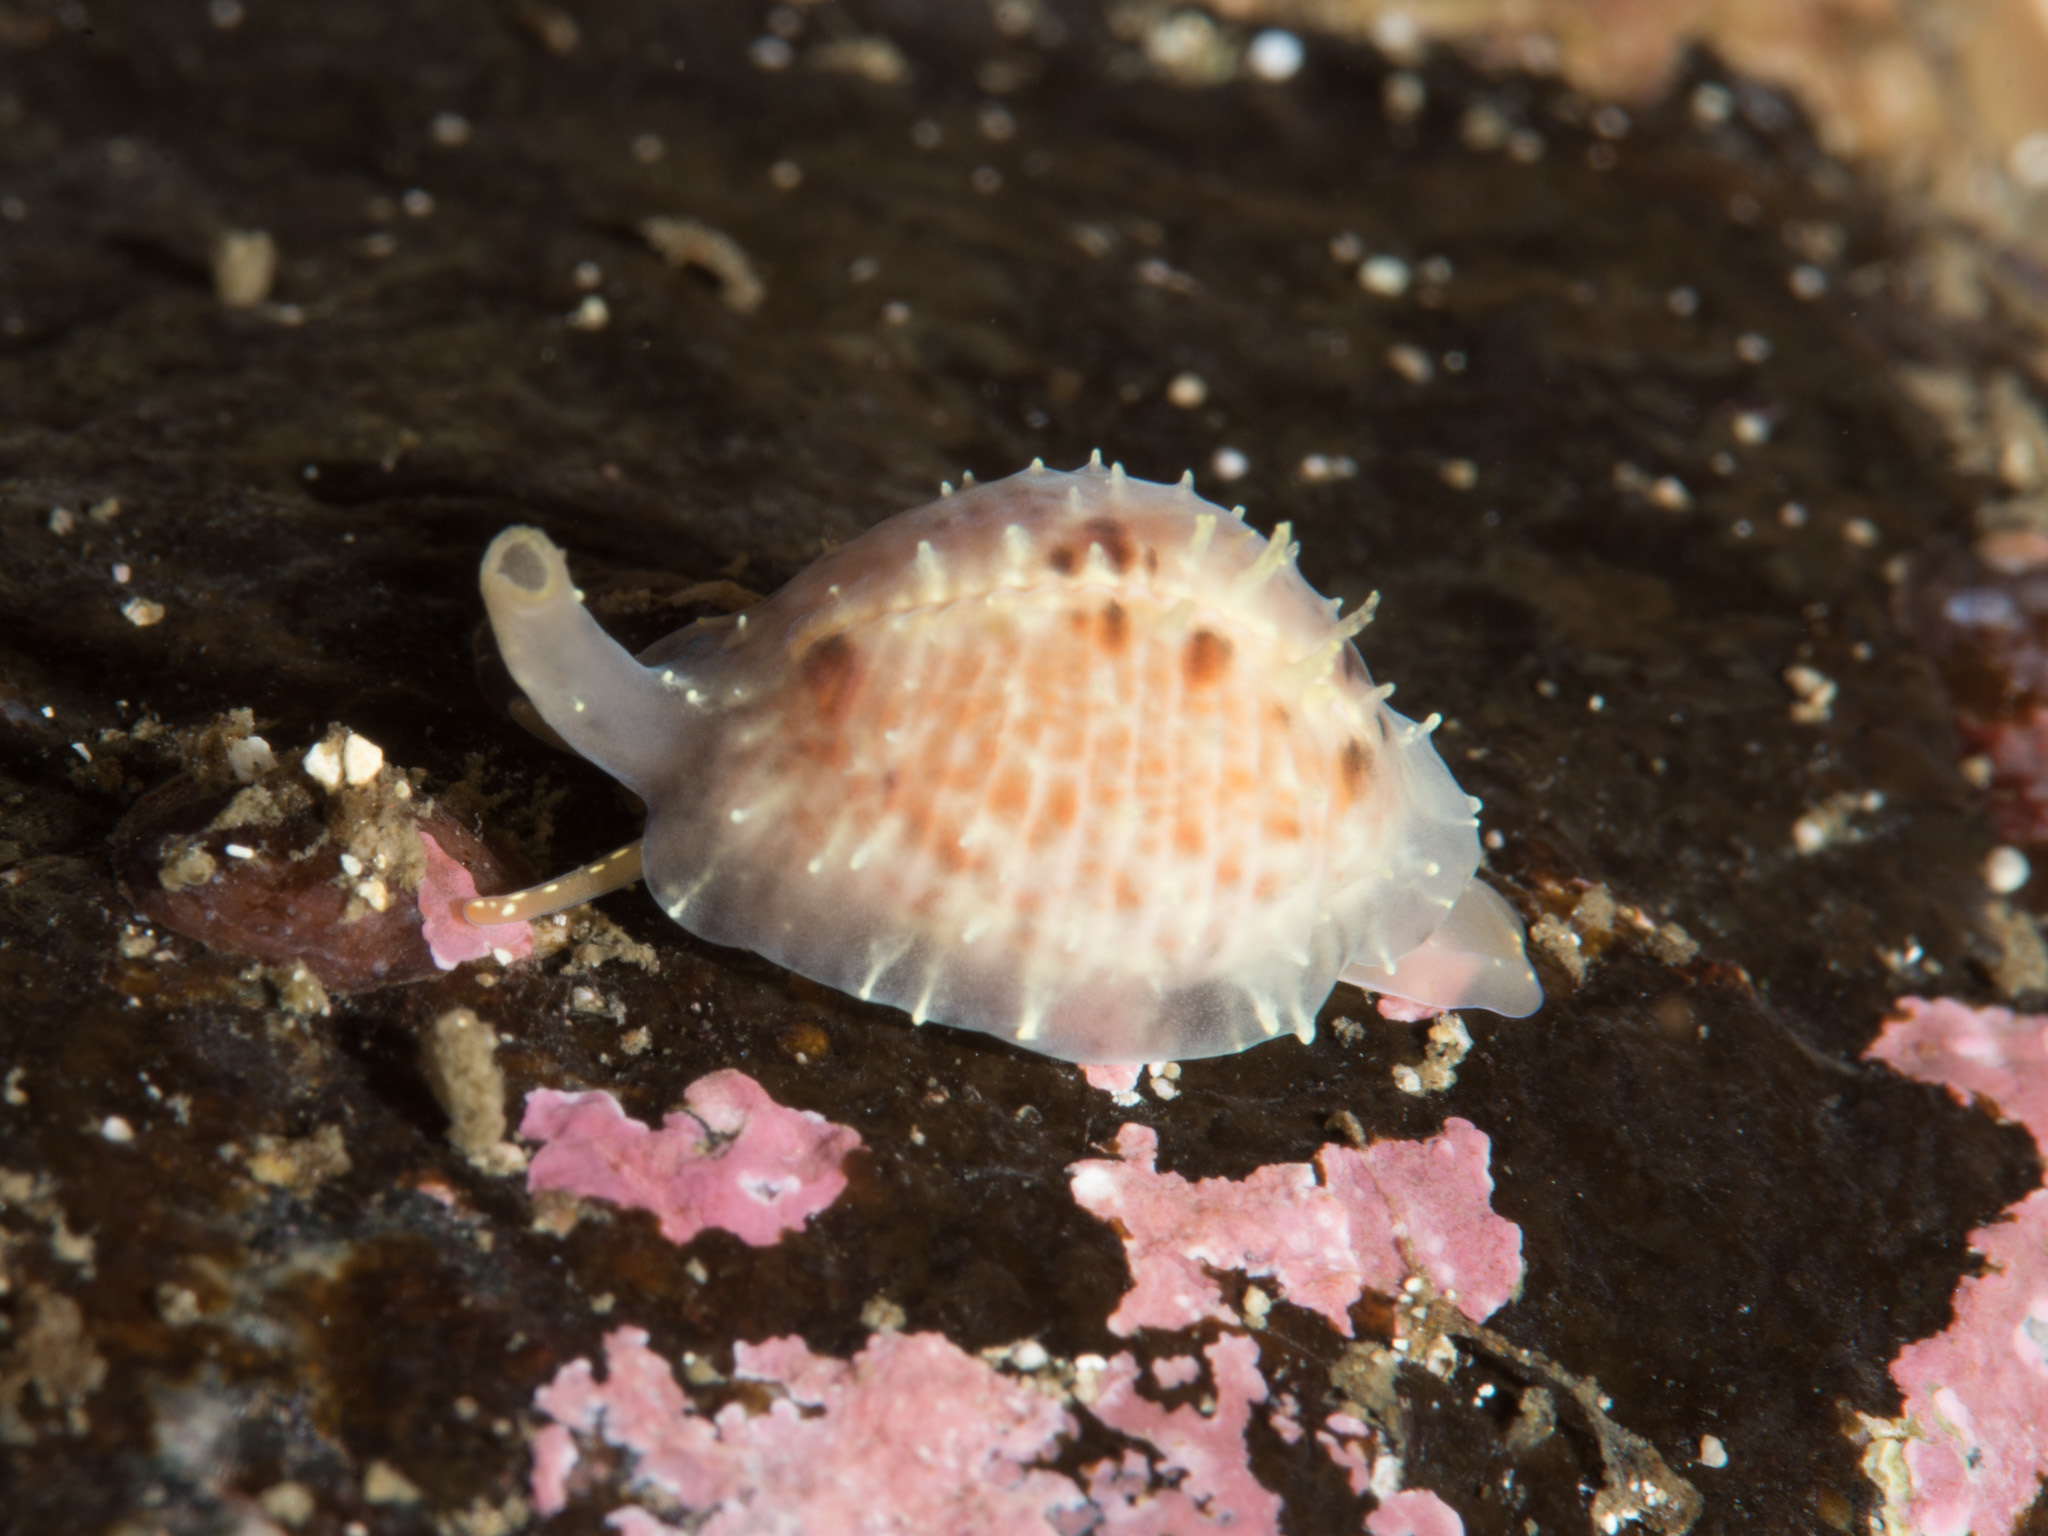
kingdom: Animalia
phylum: Mollusca
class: Gastropoda
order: Littorinimorpha
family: Triviidae
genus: Trivia
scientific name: Trivia arctica
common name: Arctic cowrie
